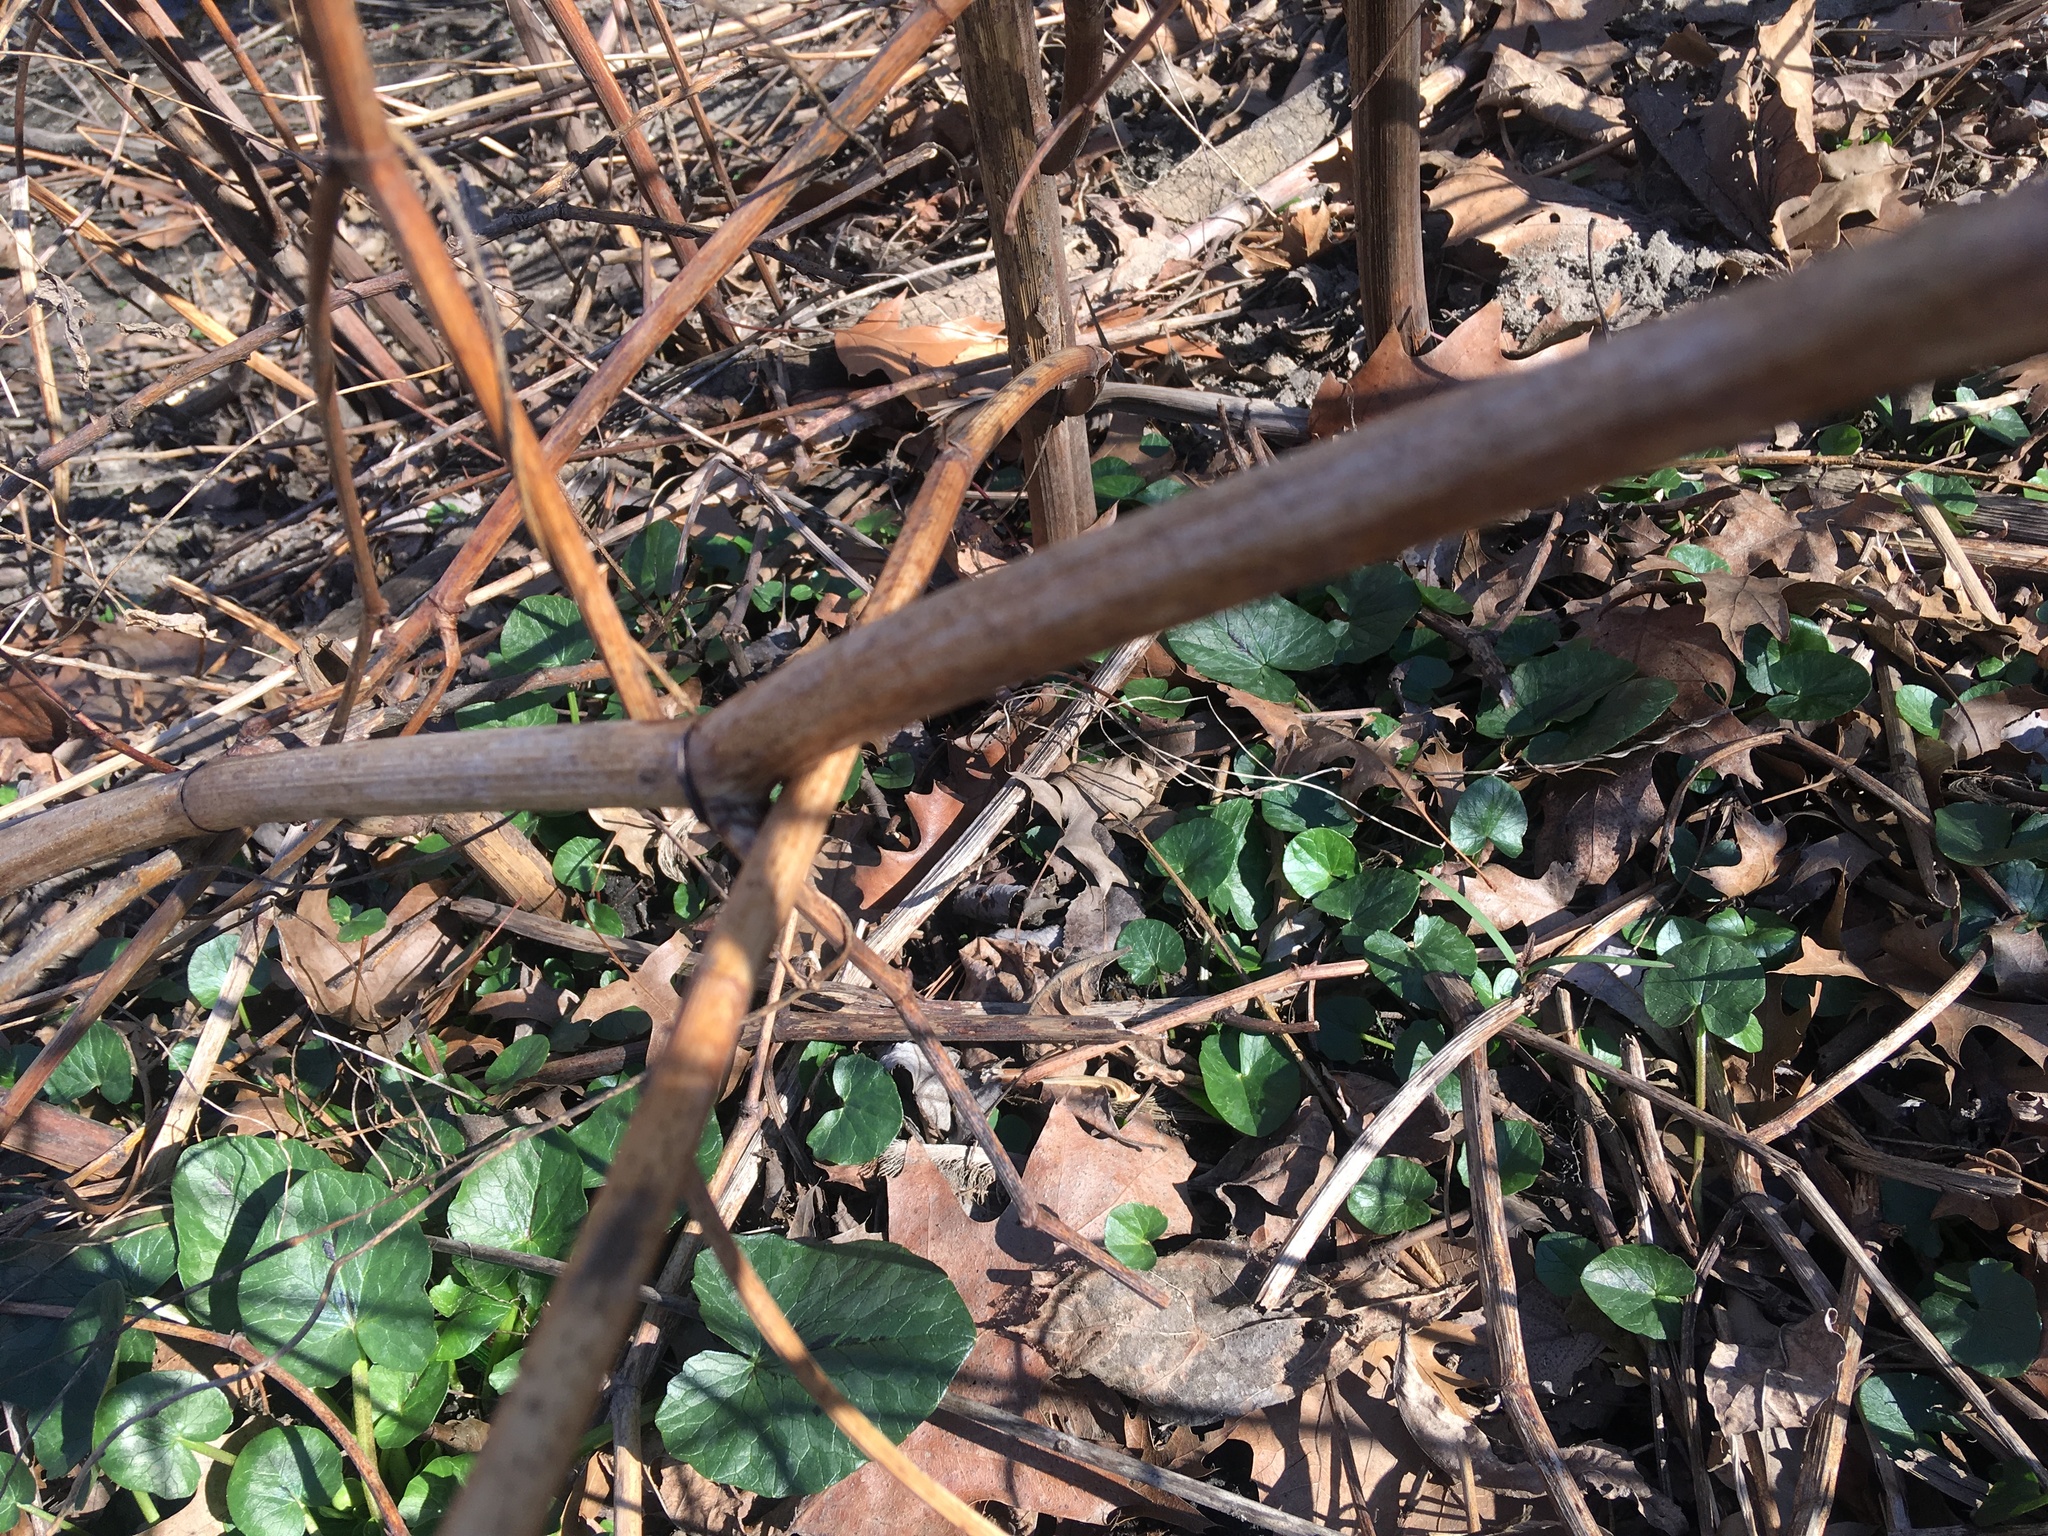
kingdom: Plantae
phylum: Tracheophyta
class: Magnoliopsida
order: Ranunculales
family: Ranunculaceae
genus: Ficaria
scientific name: Ficaria verna
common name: Lesser celandine
